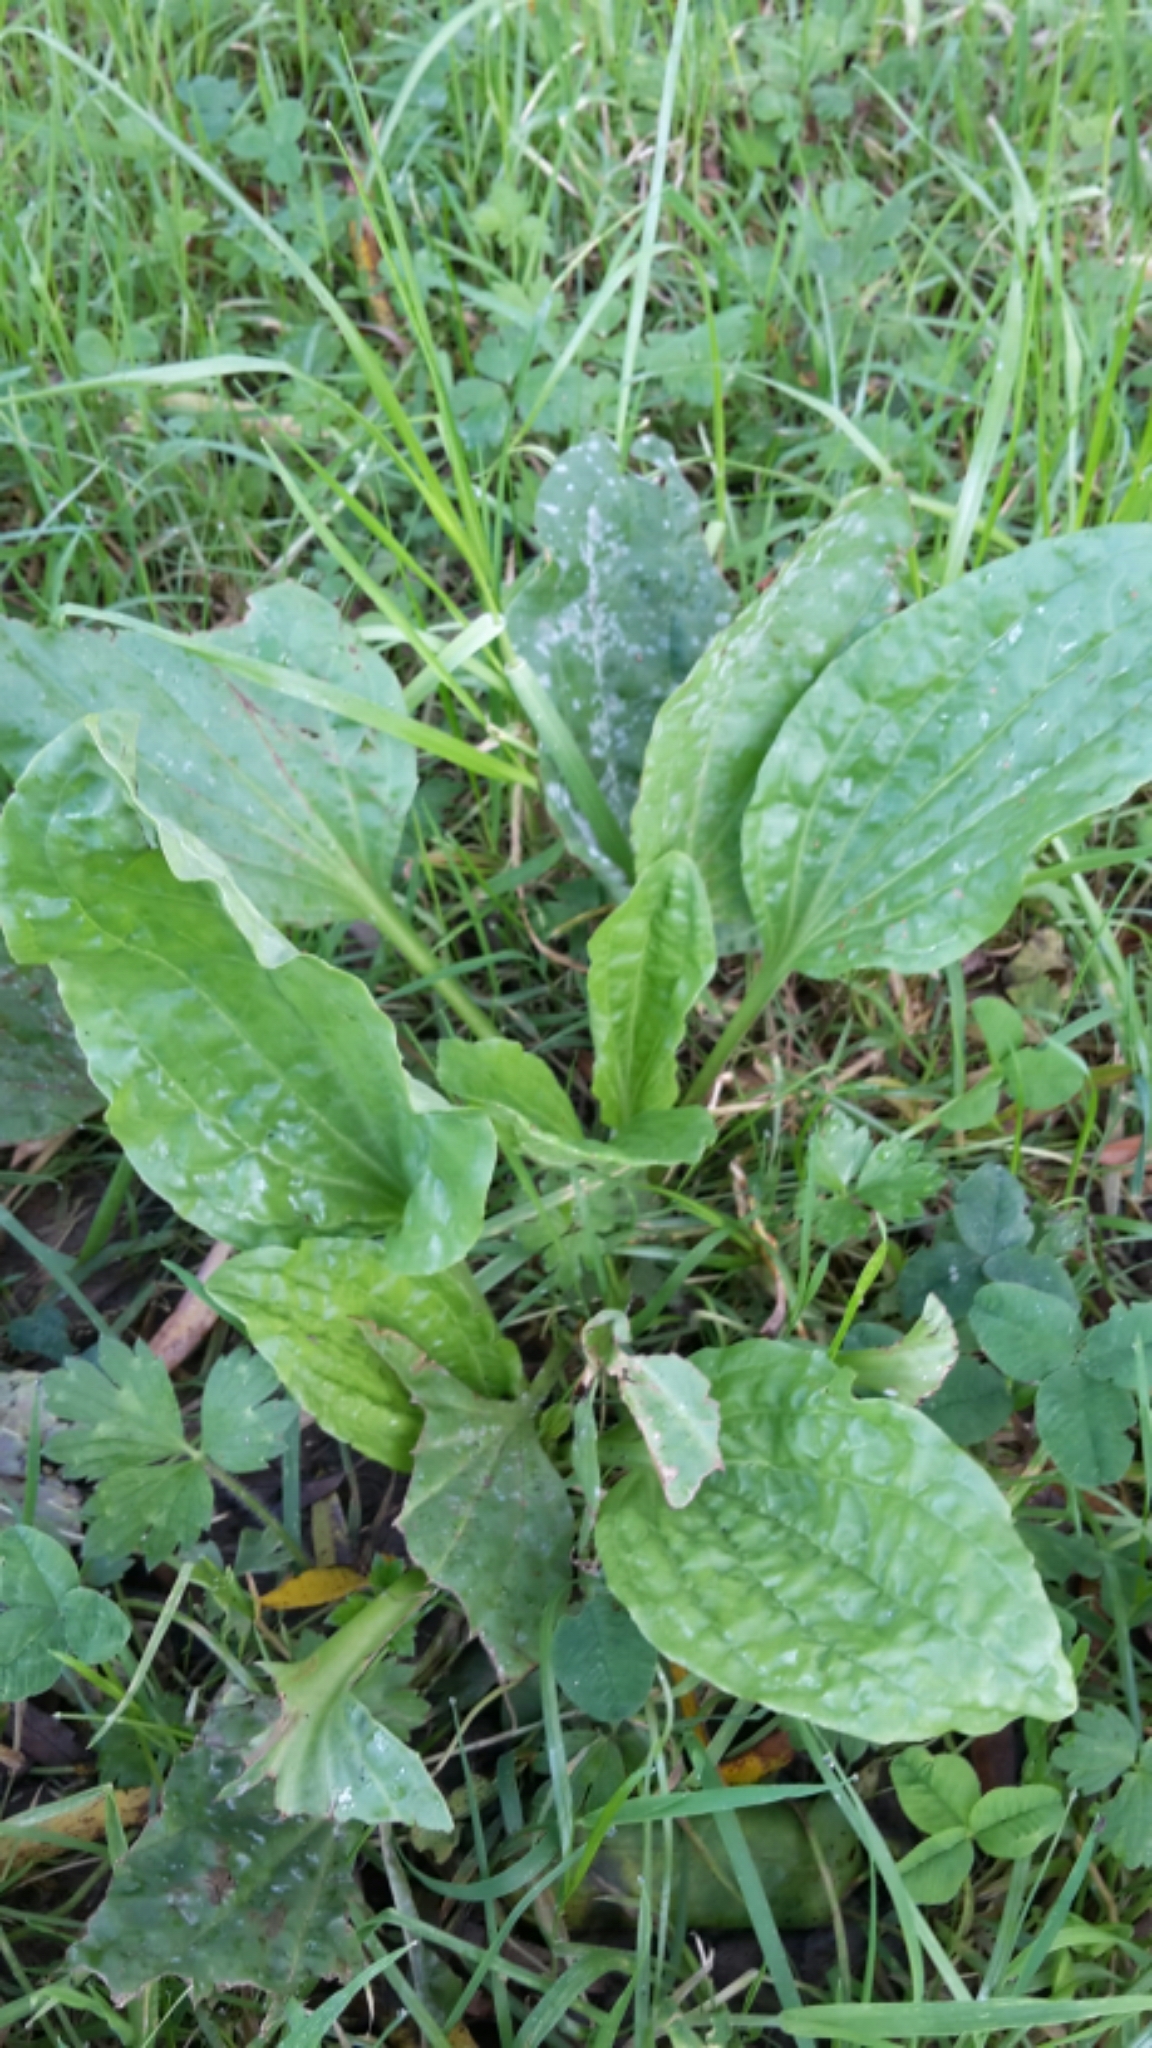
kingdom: Plantae
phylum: Tracheophyta
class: Magnoliopsida
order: Lamiales
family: Plantaginaceae
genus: Plantago
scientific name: Plantago major
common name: Common plantain
